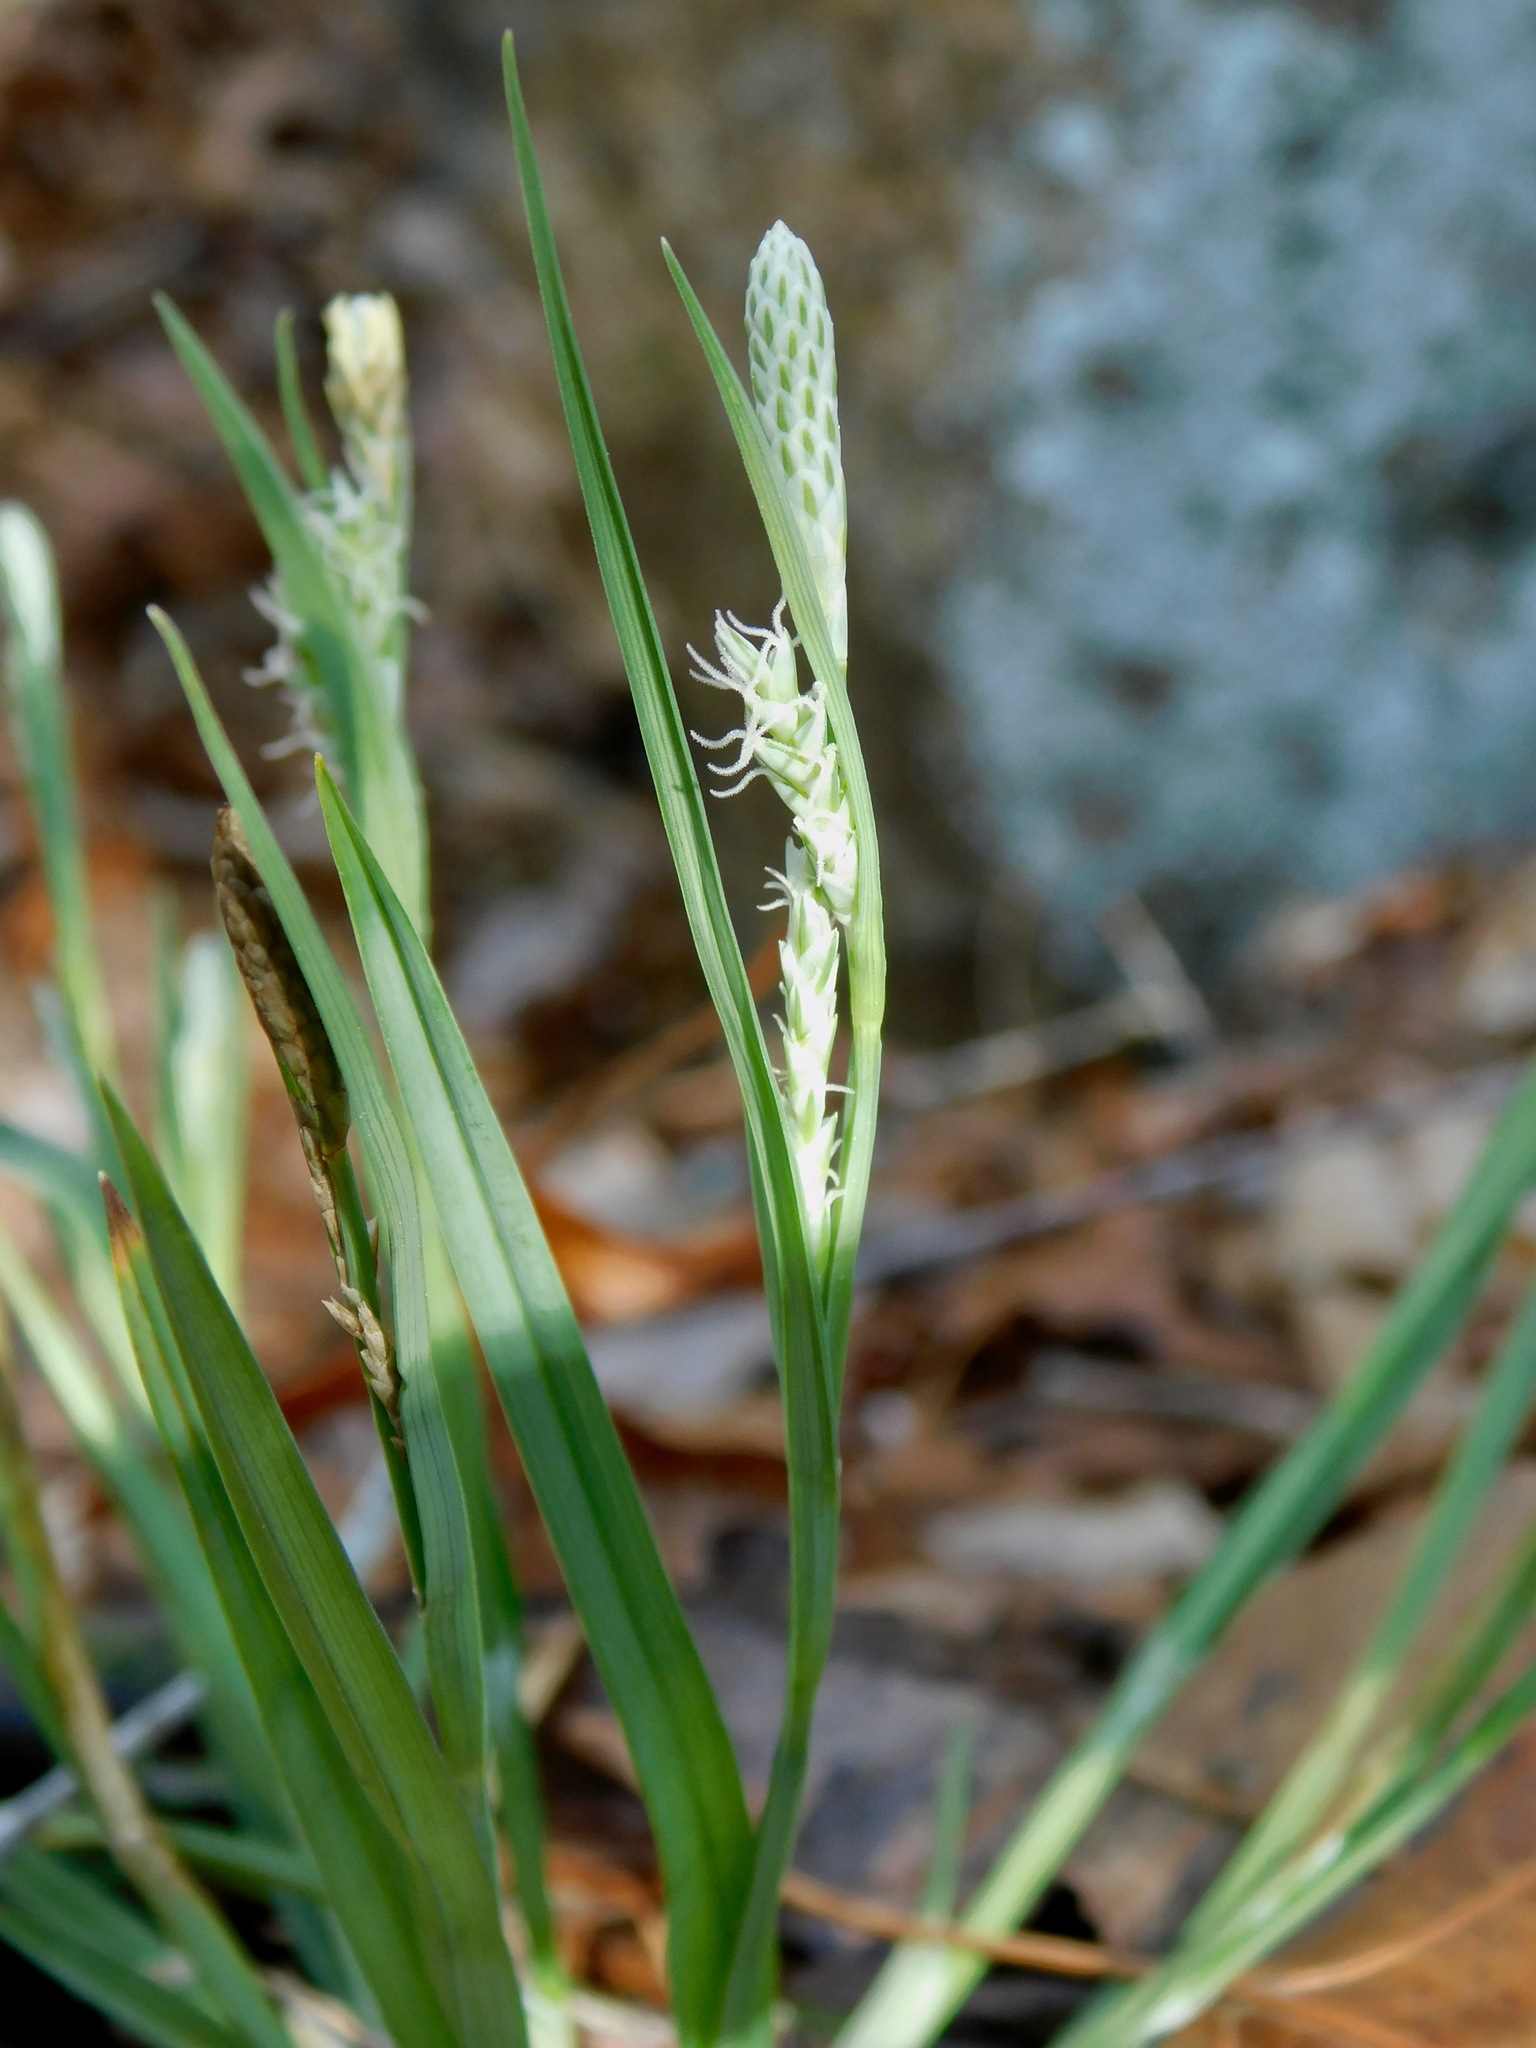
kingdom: Plantae
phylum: Tracheophyta
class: Liliopsida
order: Poales
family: Cyperaceae
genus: Carex
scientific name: Carex blanda
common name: Bland sedge
